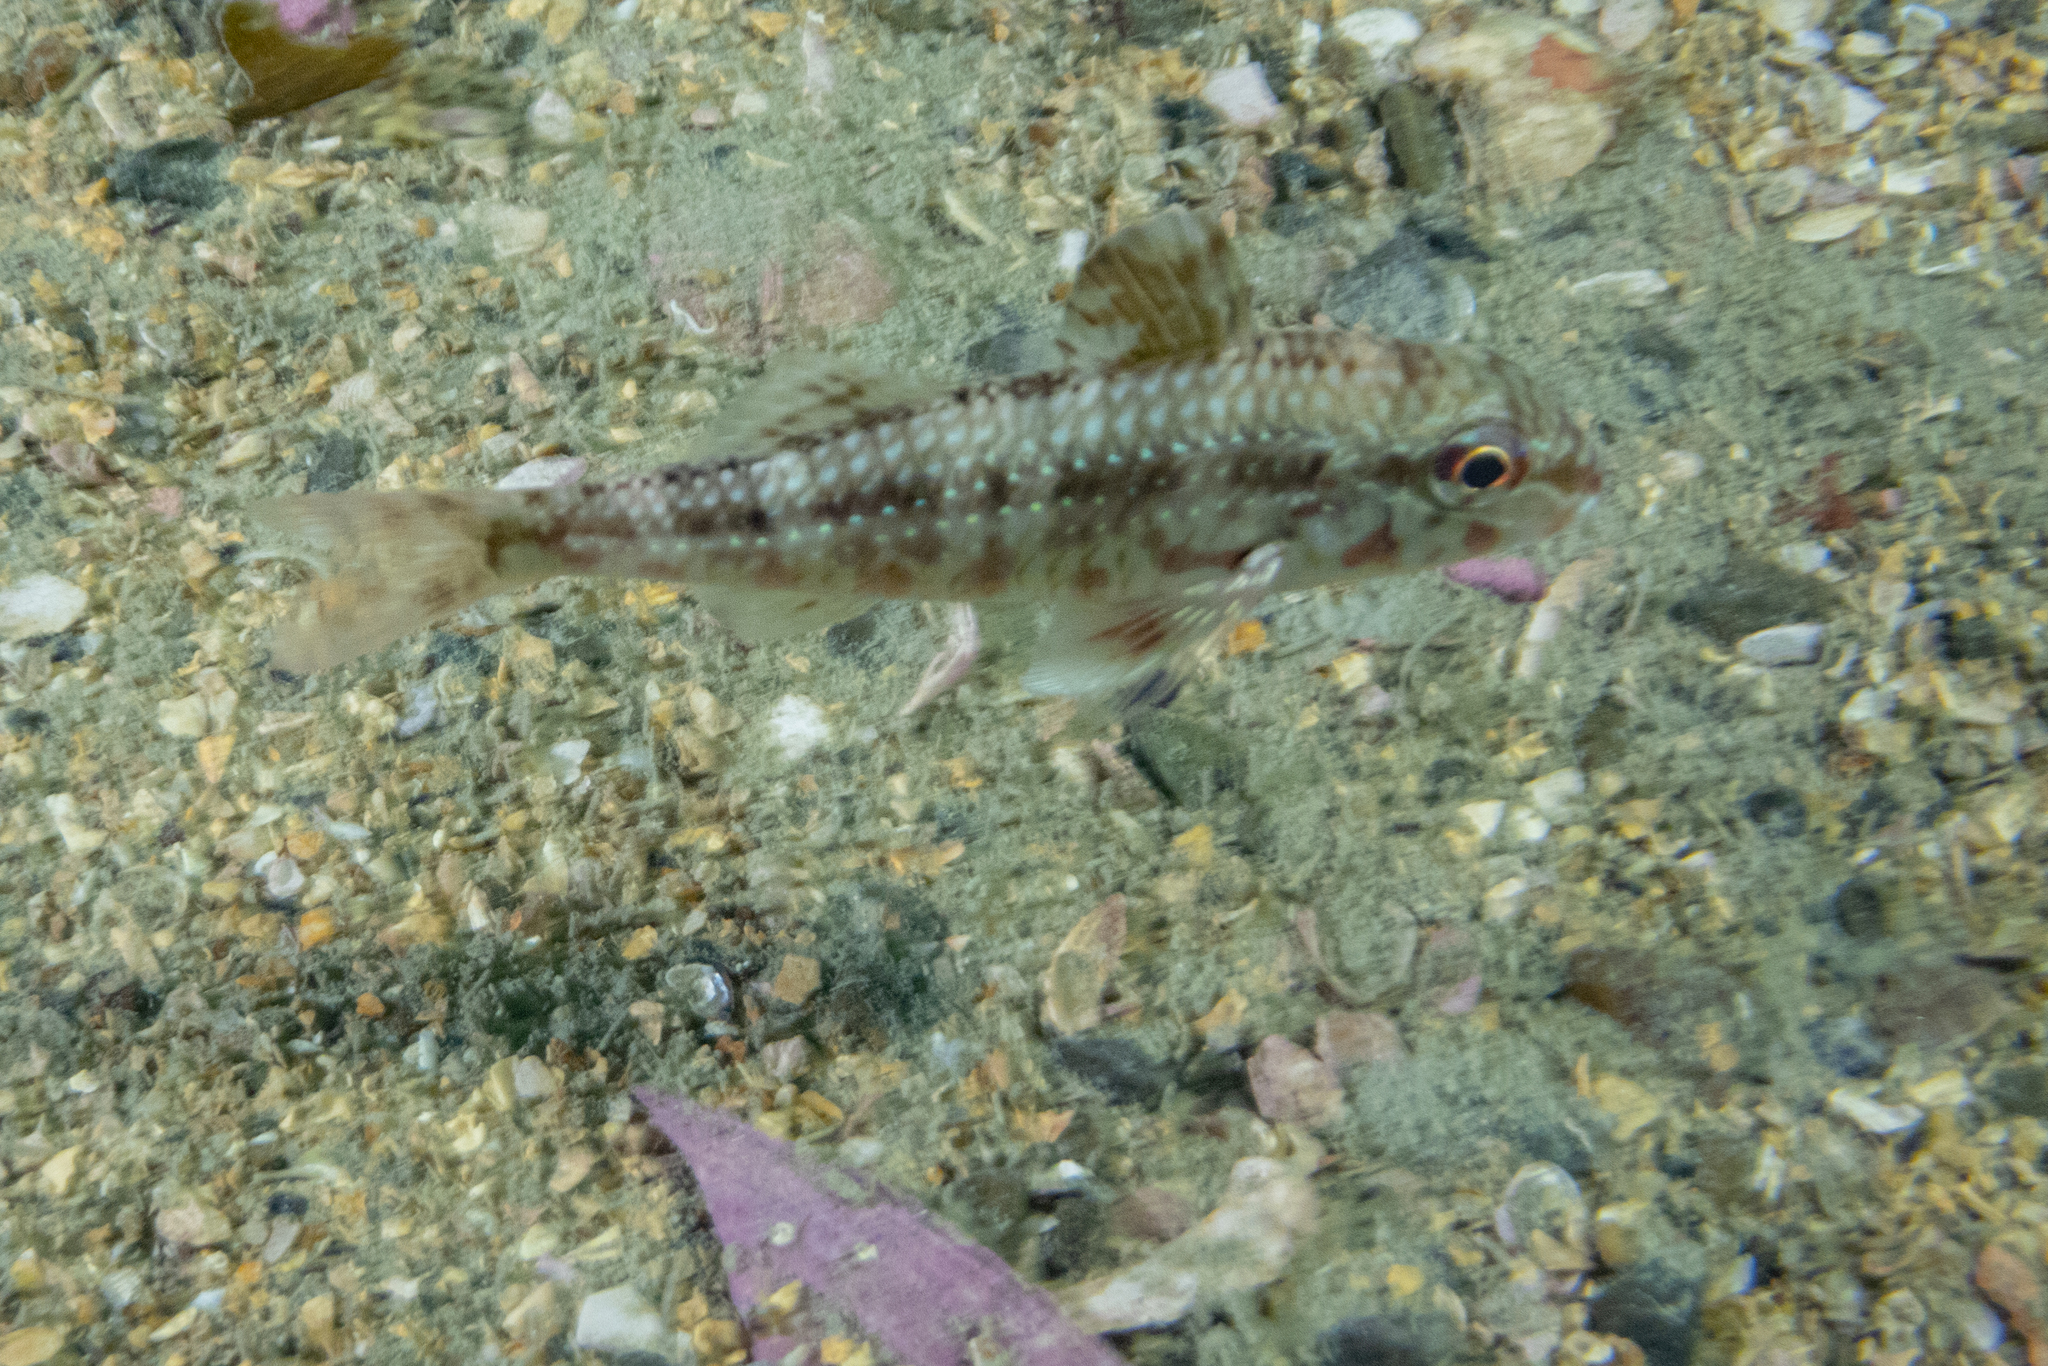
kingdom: Animalia
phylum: Chordata
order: Perciformes
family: Mullidae
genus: Upeneichthys
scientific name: Upeneichthys lineatus
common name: Red mullet
